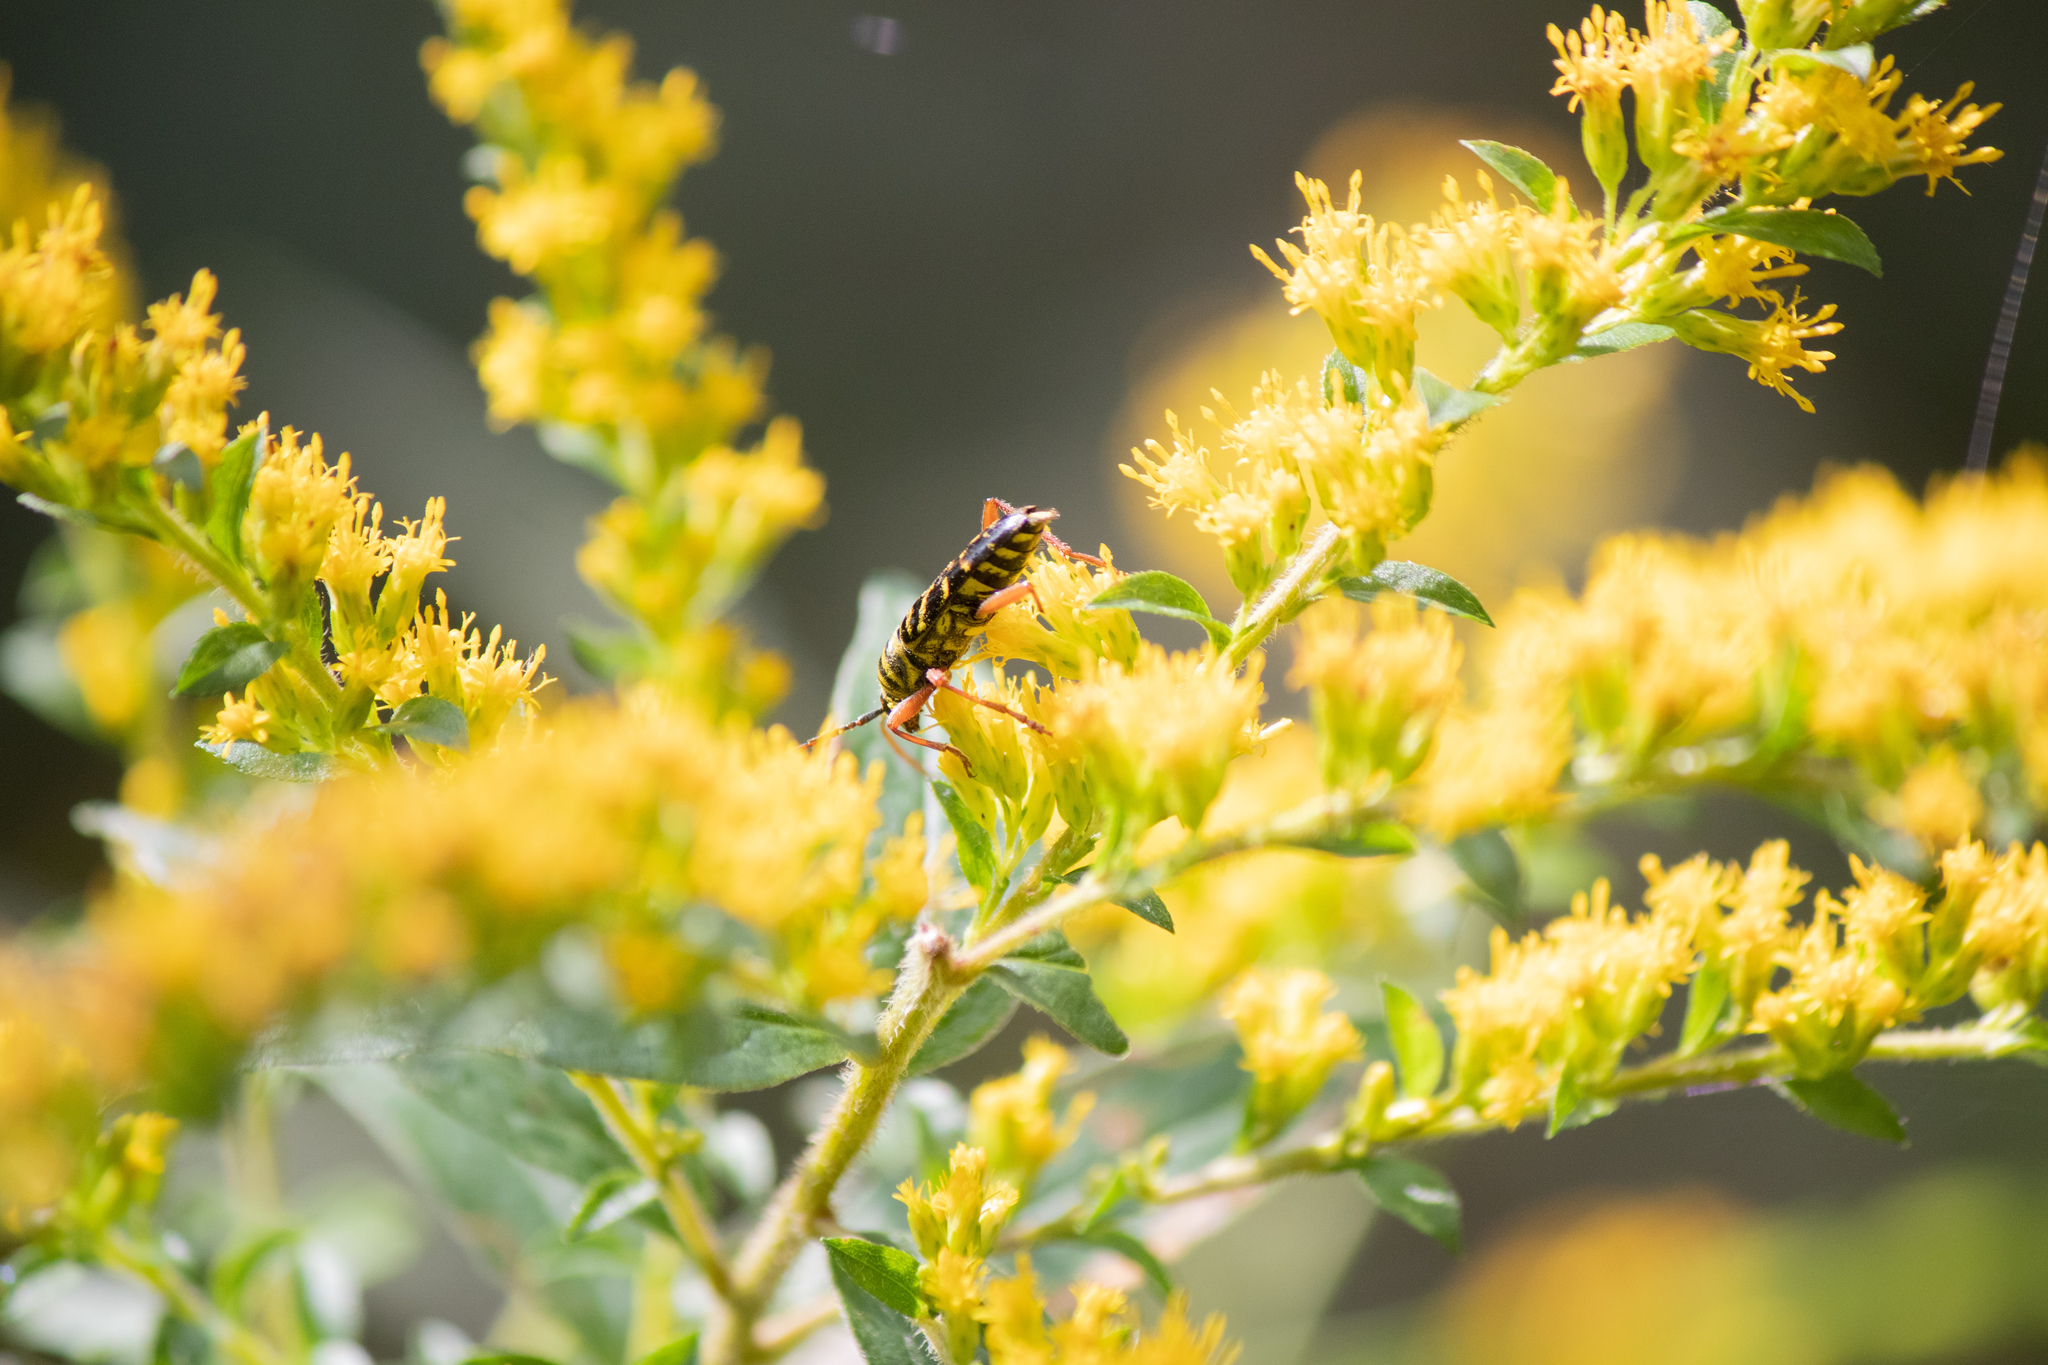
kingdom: Animalia
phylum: Arthropoda
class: Insecta
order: Coleoptera
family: Cerambycidae
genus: Megacyllene
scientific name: Megacyllene robiniae
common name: Locust borer
